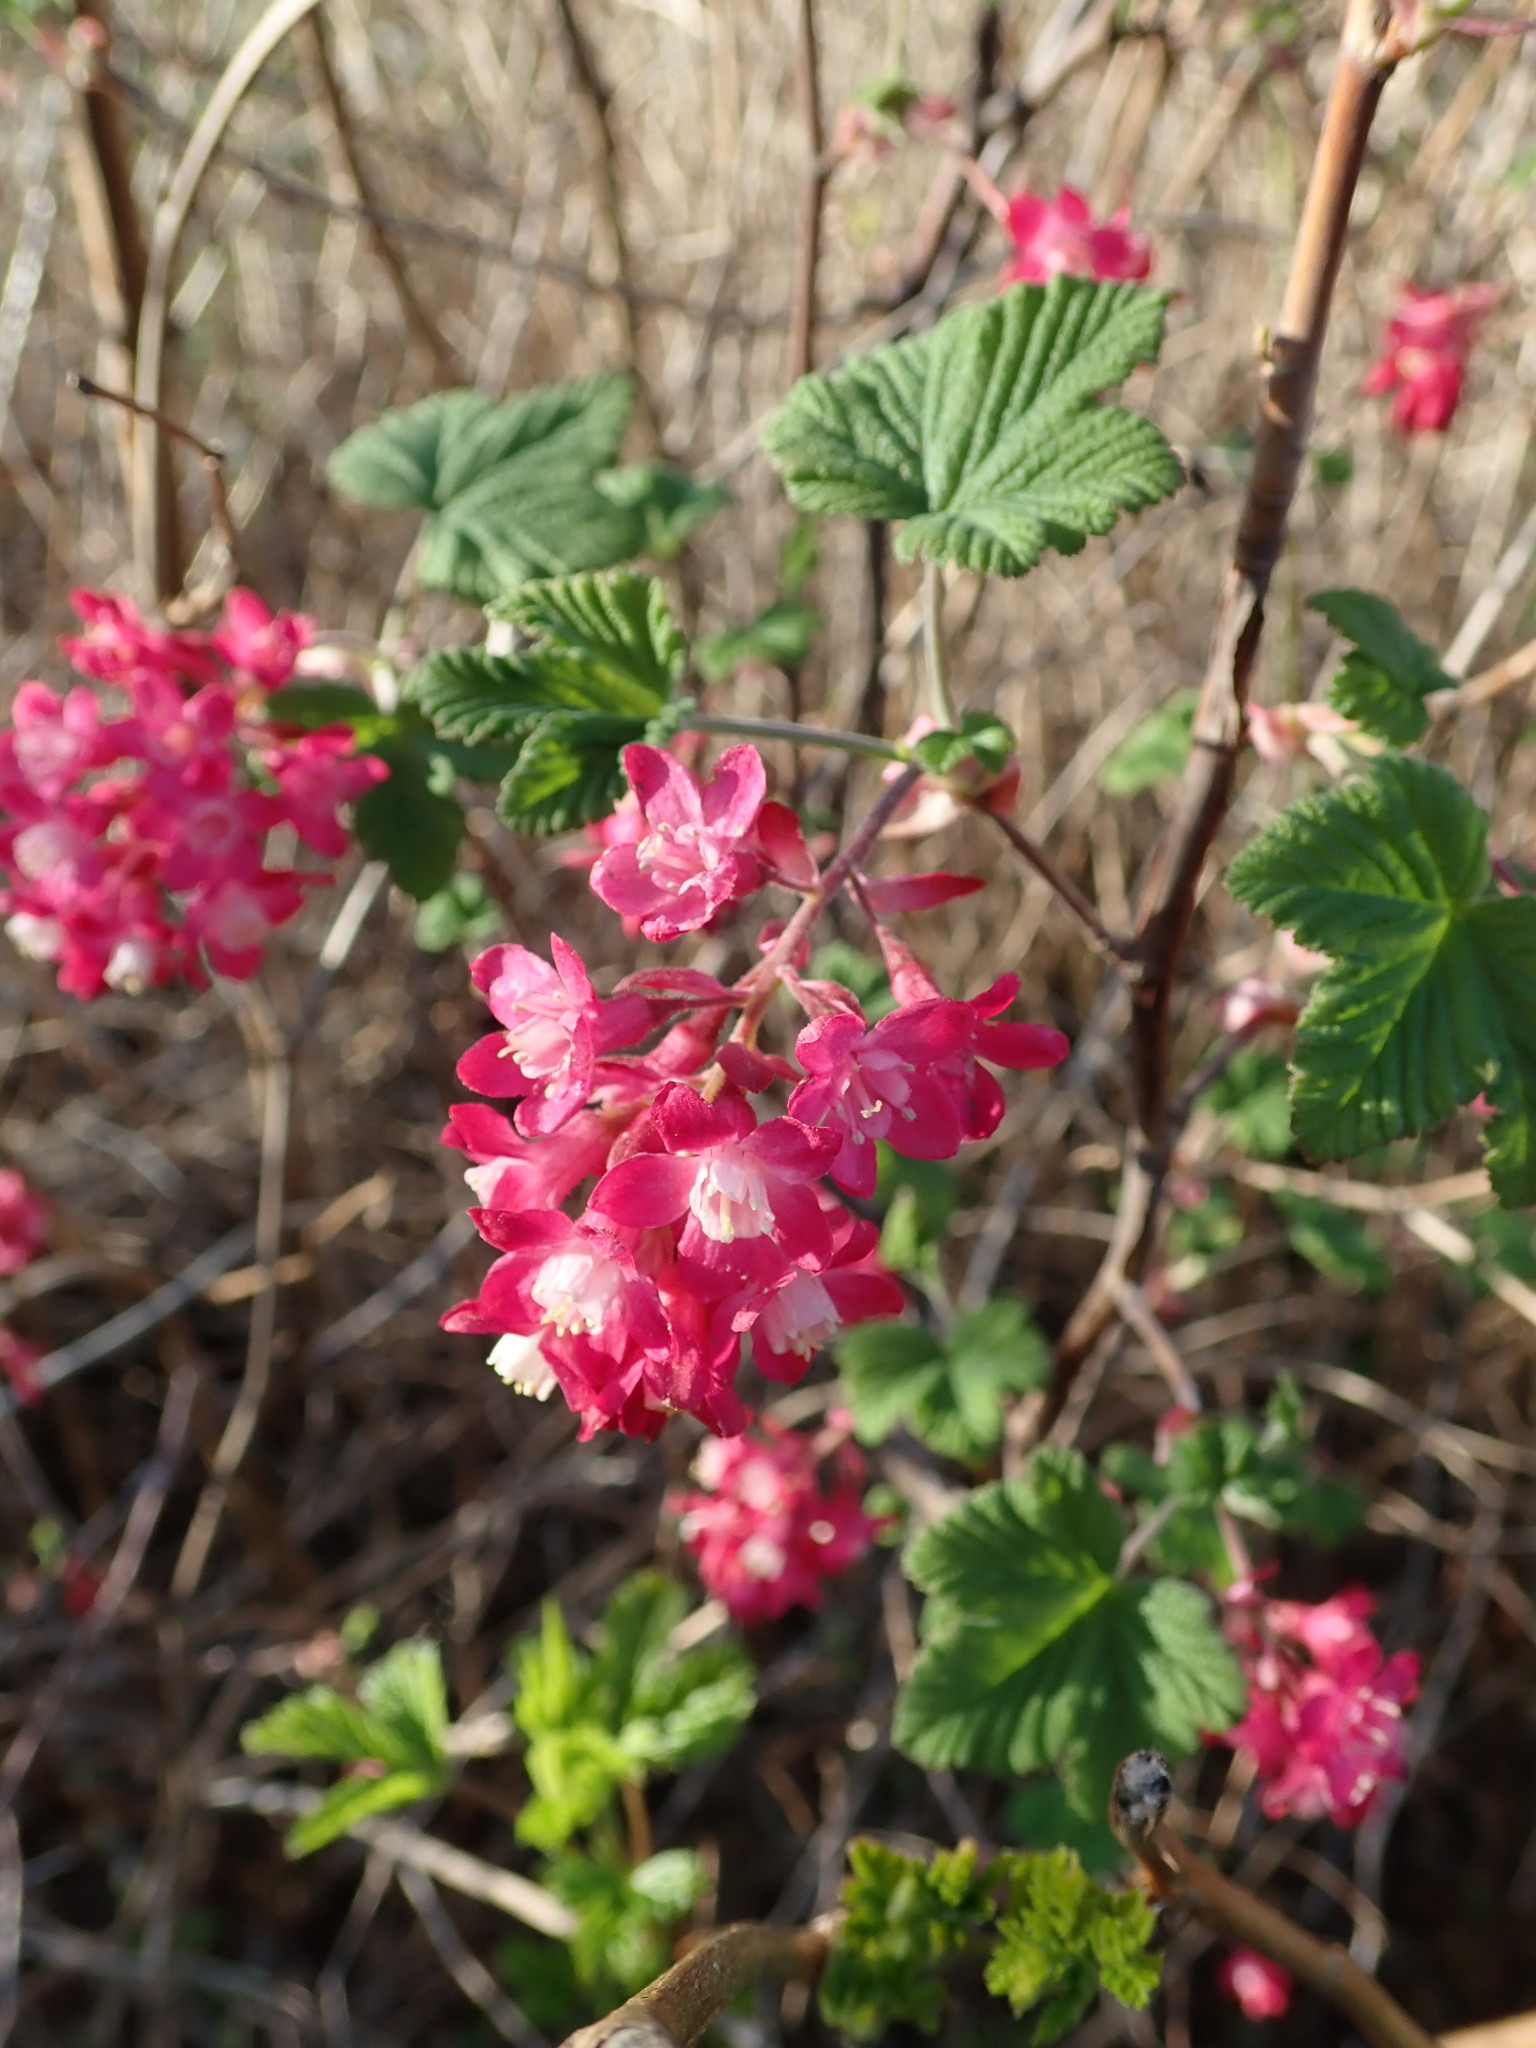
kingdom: Plantae
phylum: Tracheophyta
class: Magnoliopsida
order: Saxifragales
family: Grossulariaceae
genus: Ribes
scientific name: Ribes sanguineum
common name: Flowering currant
